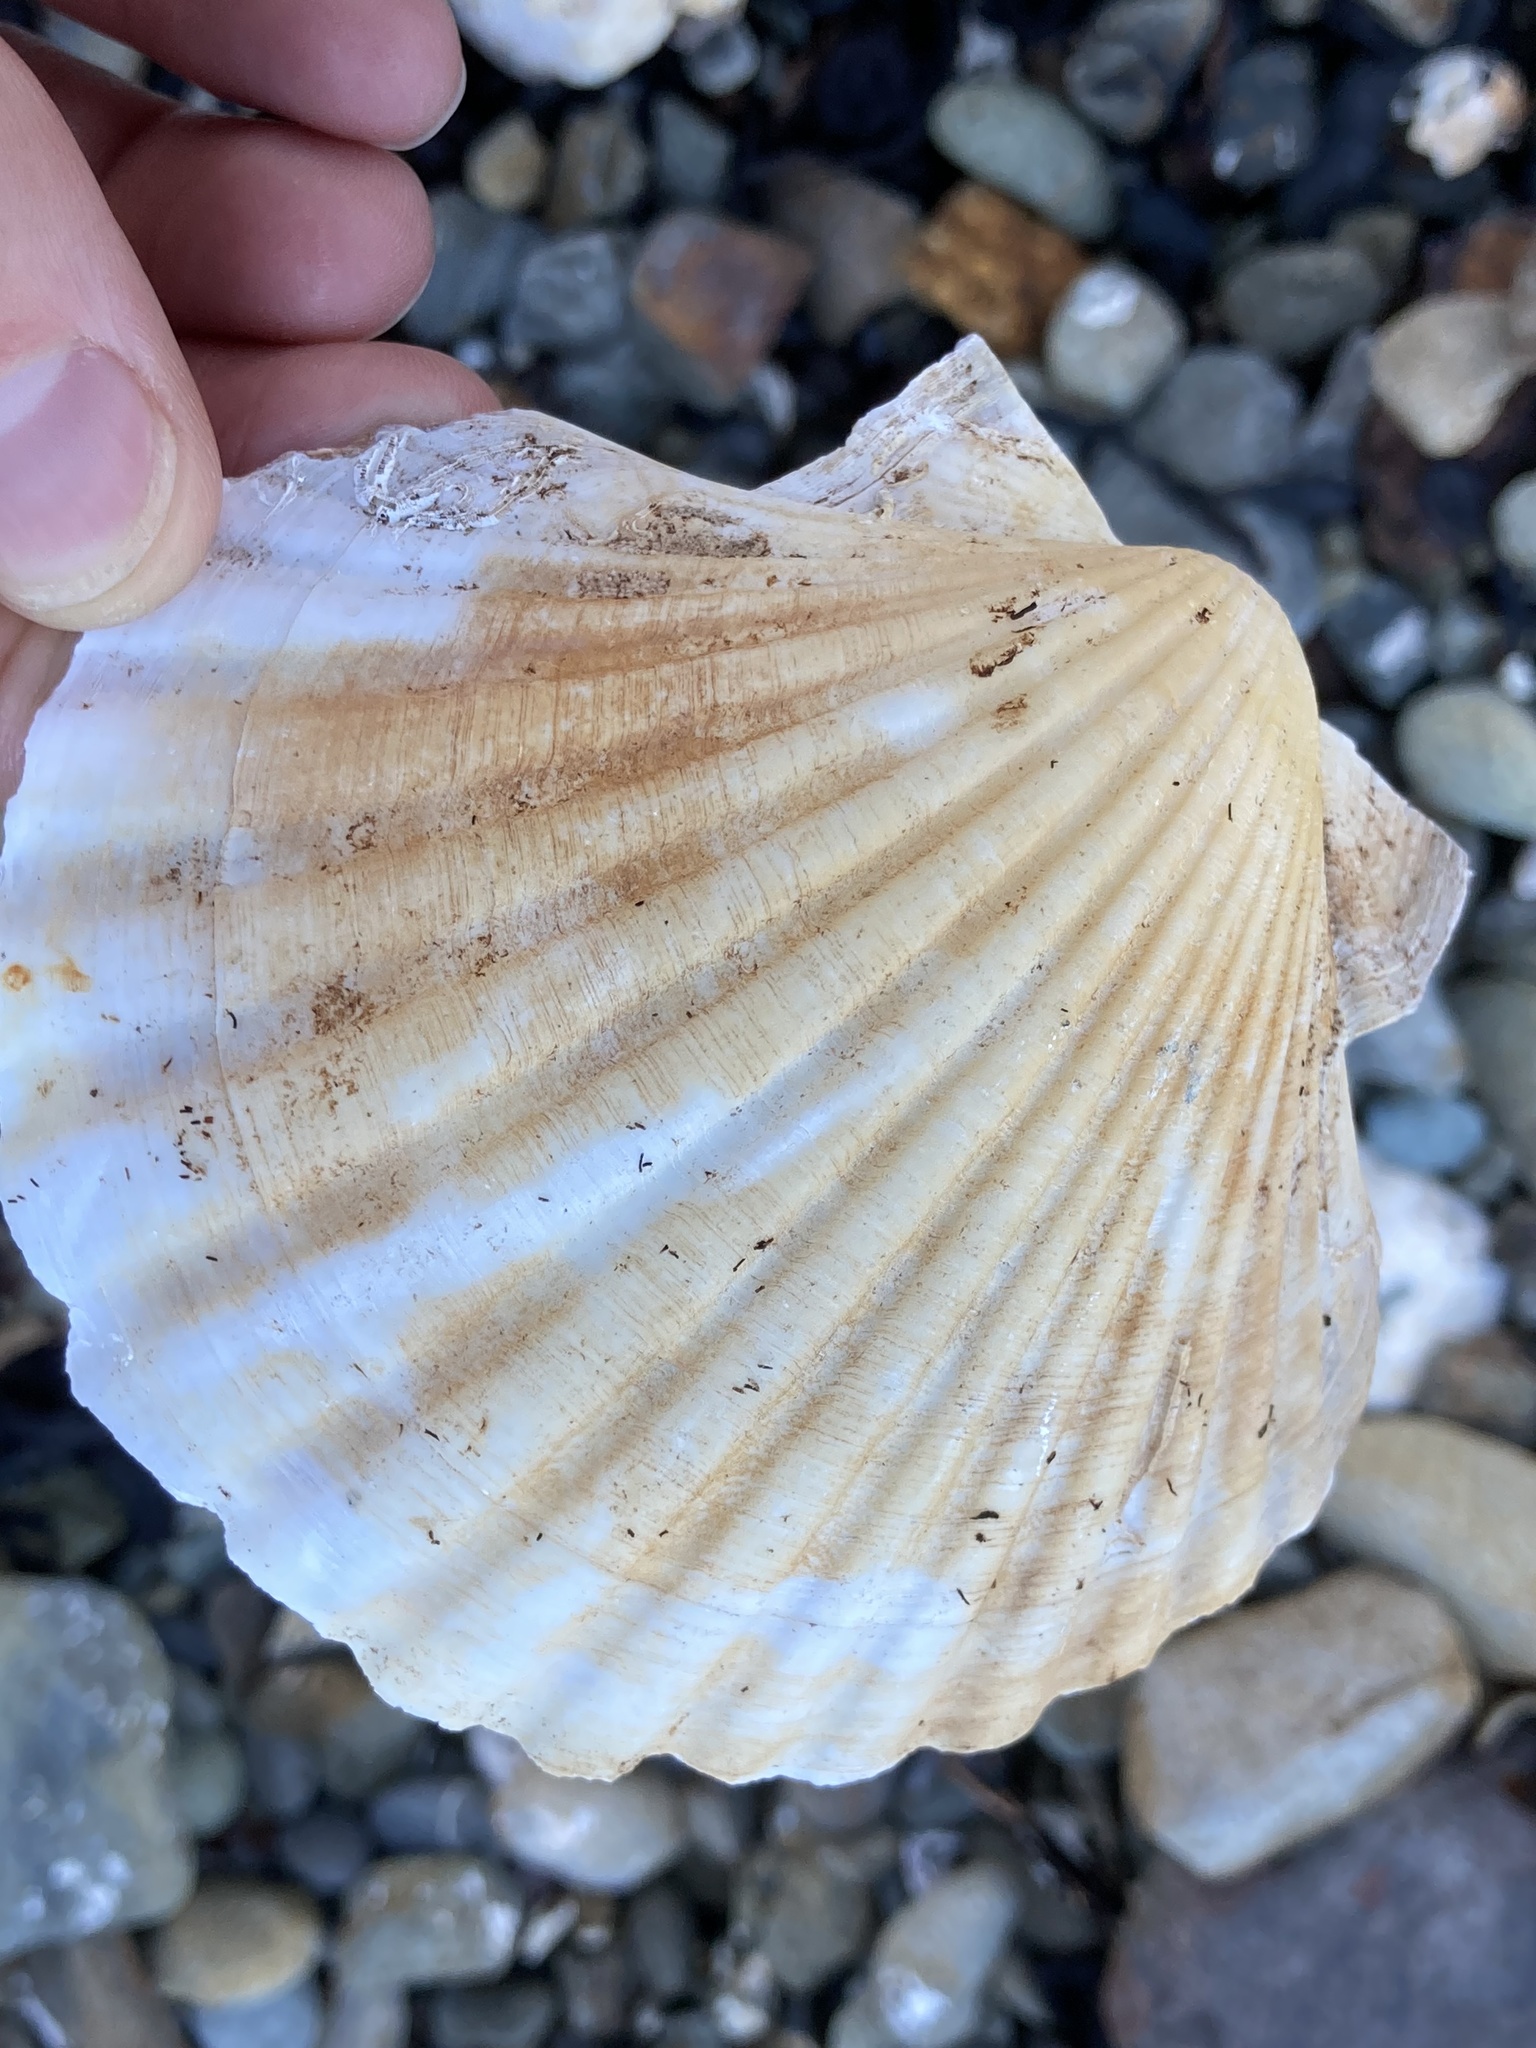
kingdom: Animalia
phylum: Mollusca
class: Bivalvia
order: Pectinida
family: Pectinidae
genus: Pecten
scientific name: Pecten novaezelandiae
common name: New zealand scallop
